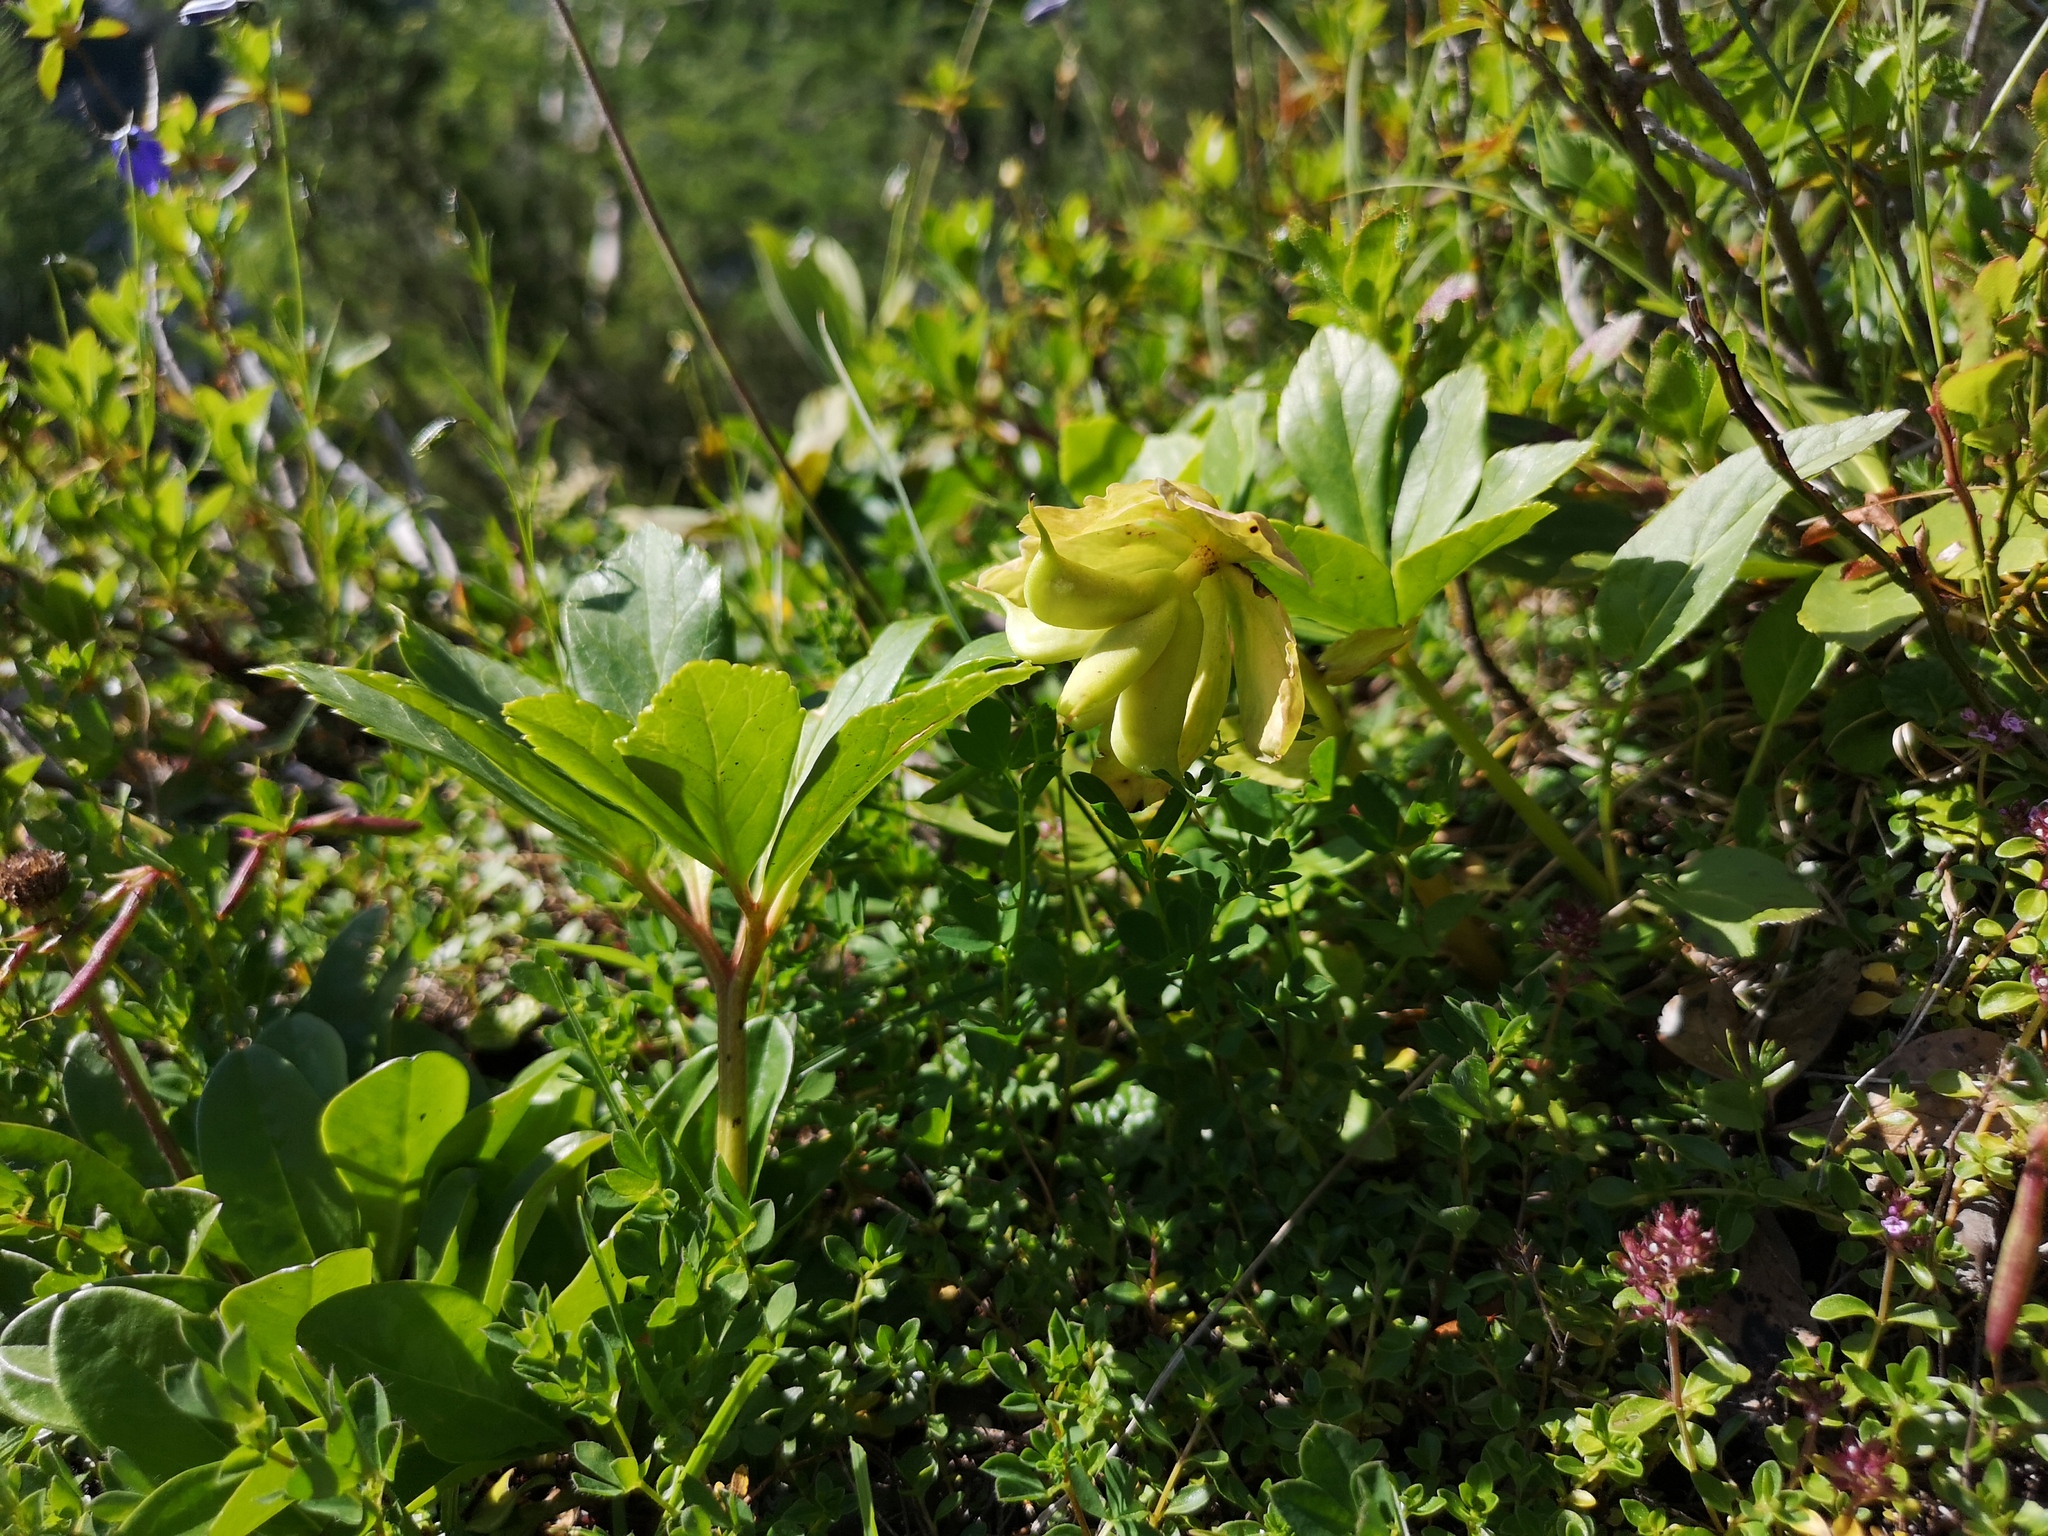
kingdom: Plantae
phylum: Tracheophyta
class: Magnoliopsida
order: Ranunculales
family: Ranunculaceae
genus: Helleborus
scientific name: Helleborus niger
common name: Black hellebore
